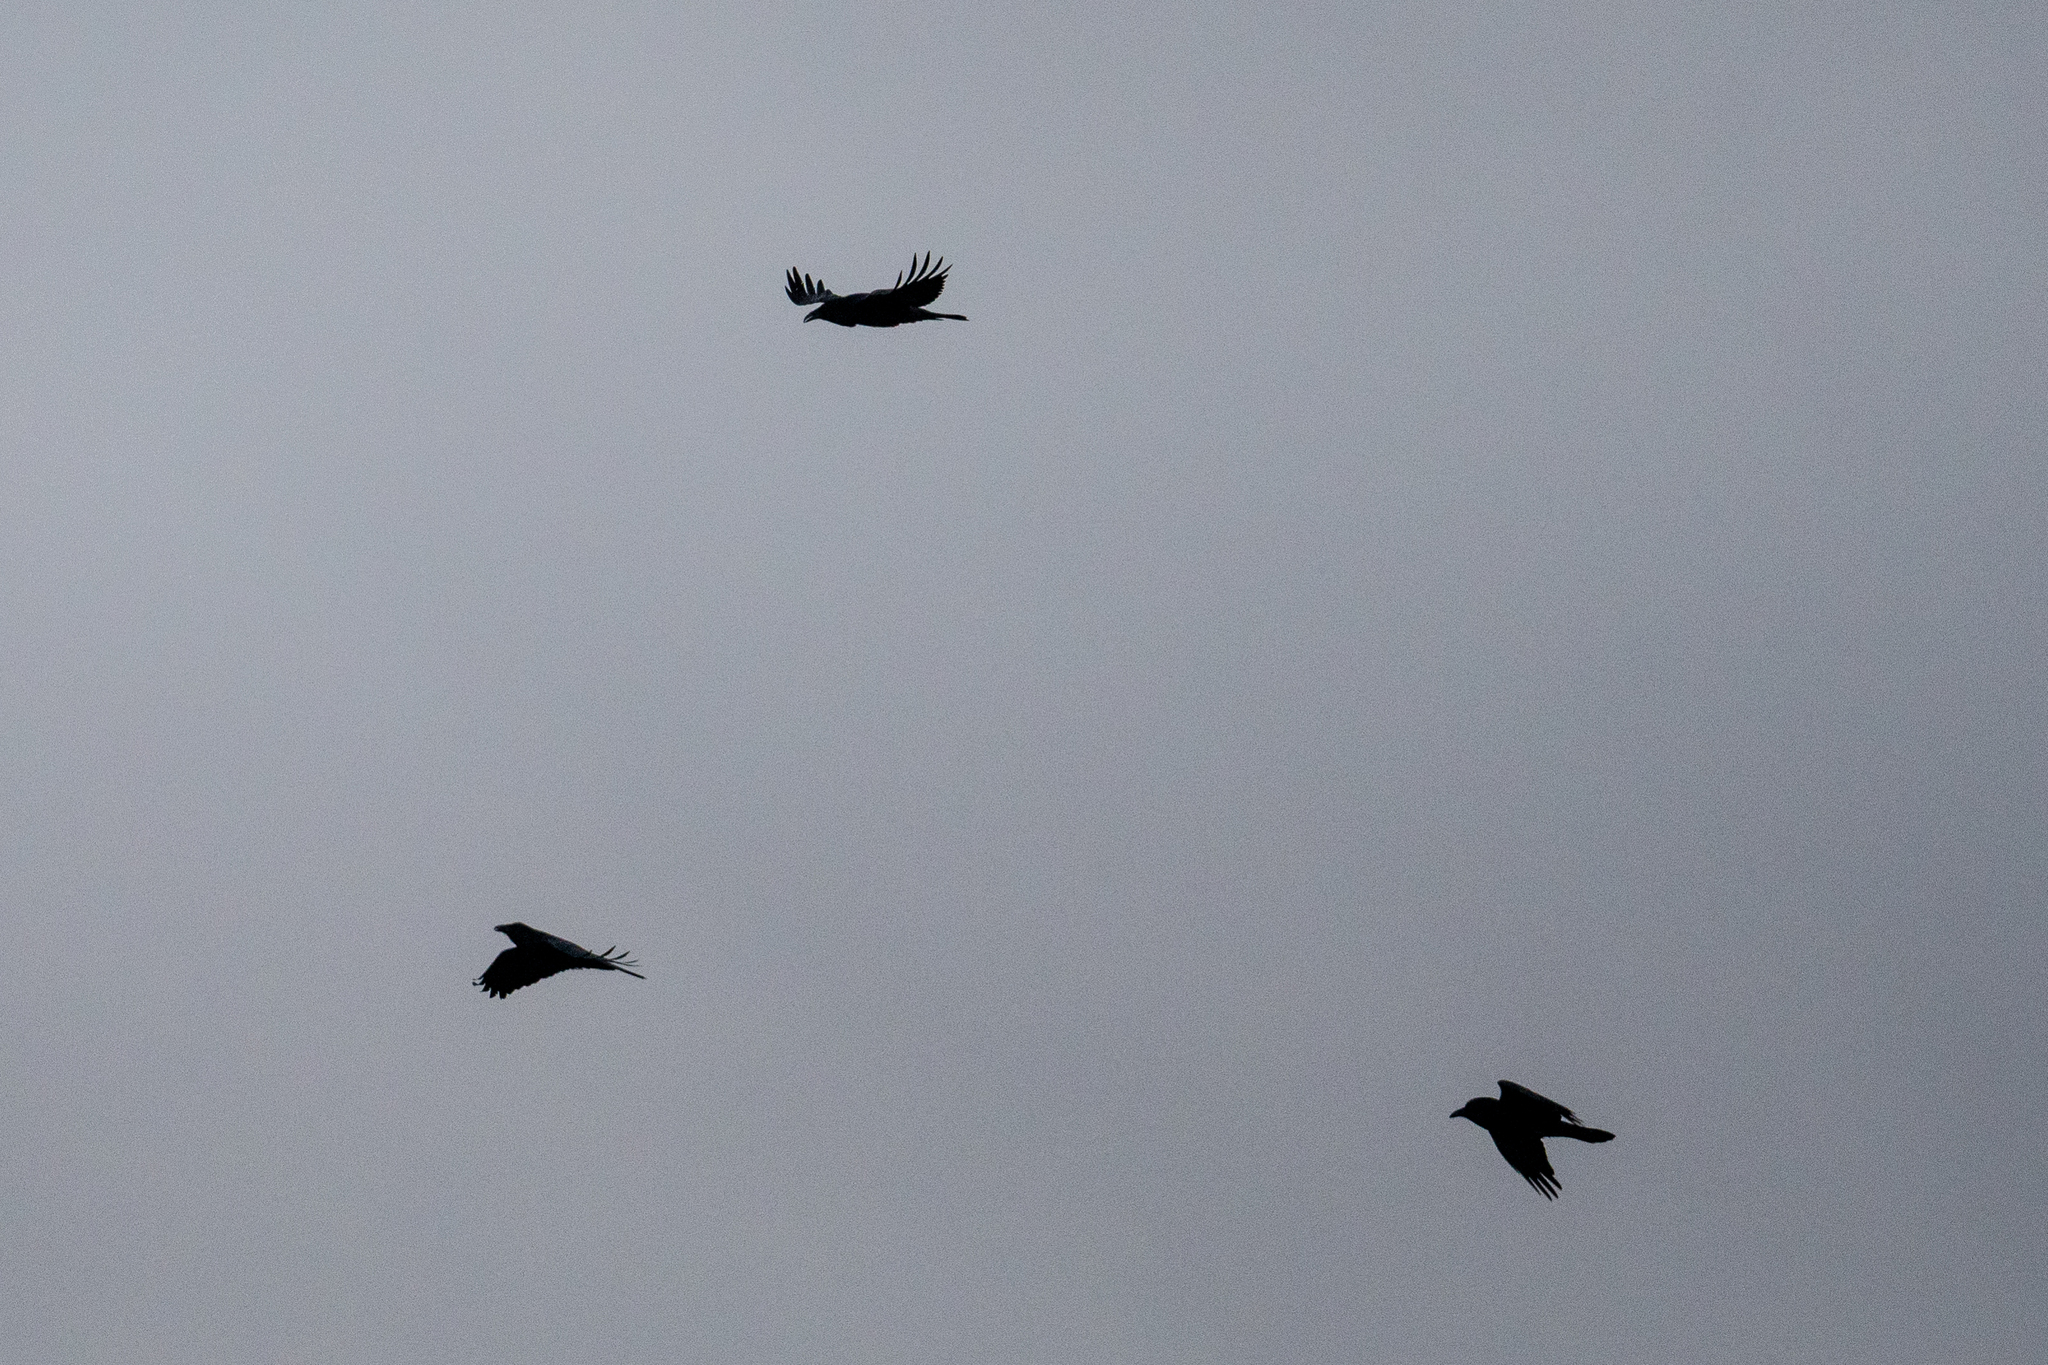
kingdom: Animalia
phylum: Chordata
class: Aves
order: Passeriformes
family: Corvidae
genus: Corvus
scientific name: Corvus corax
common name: Common raven
